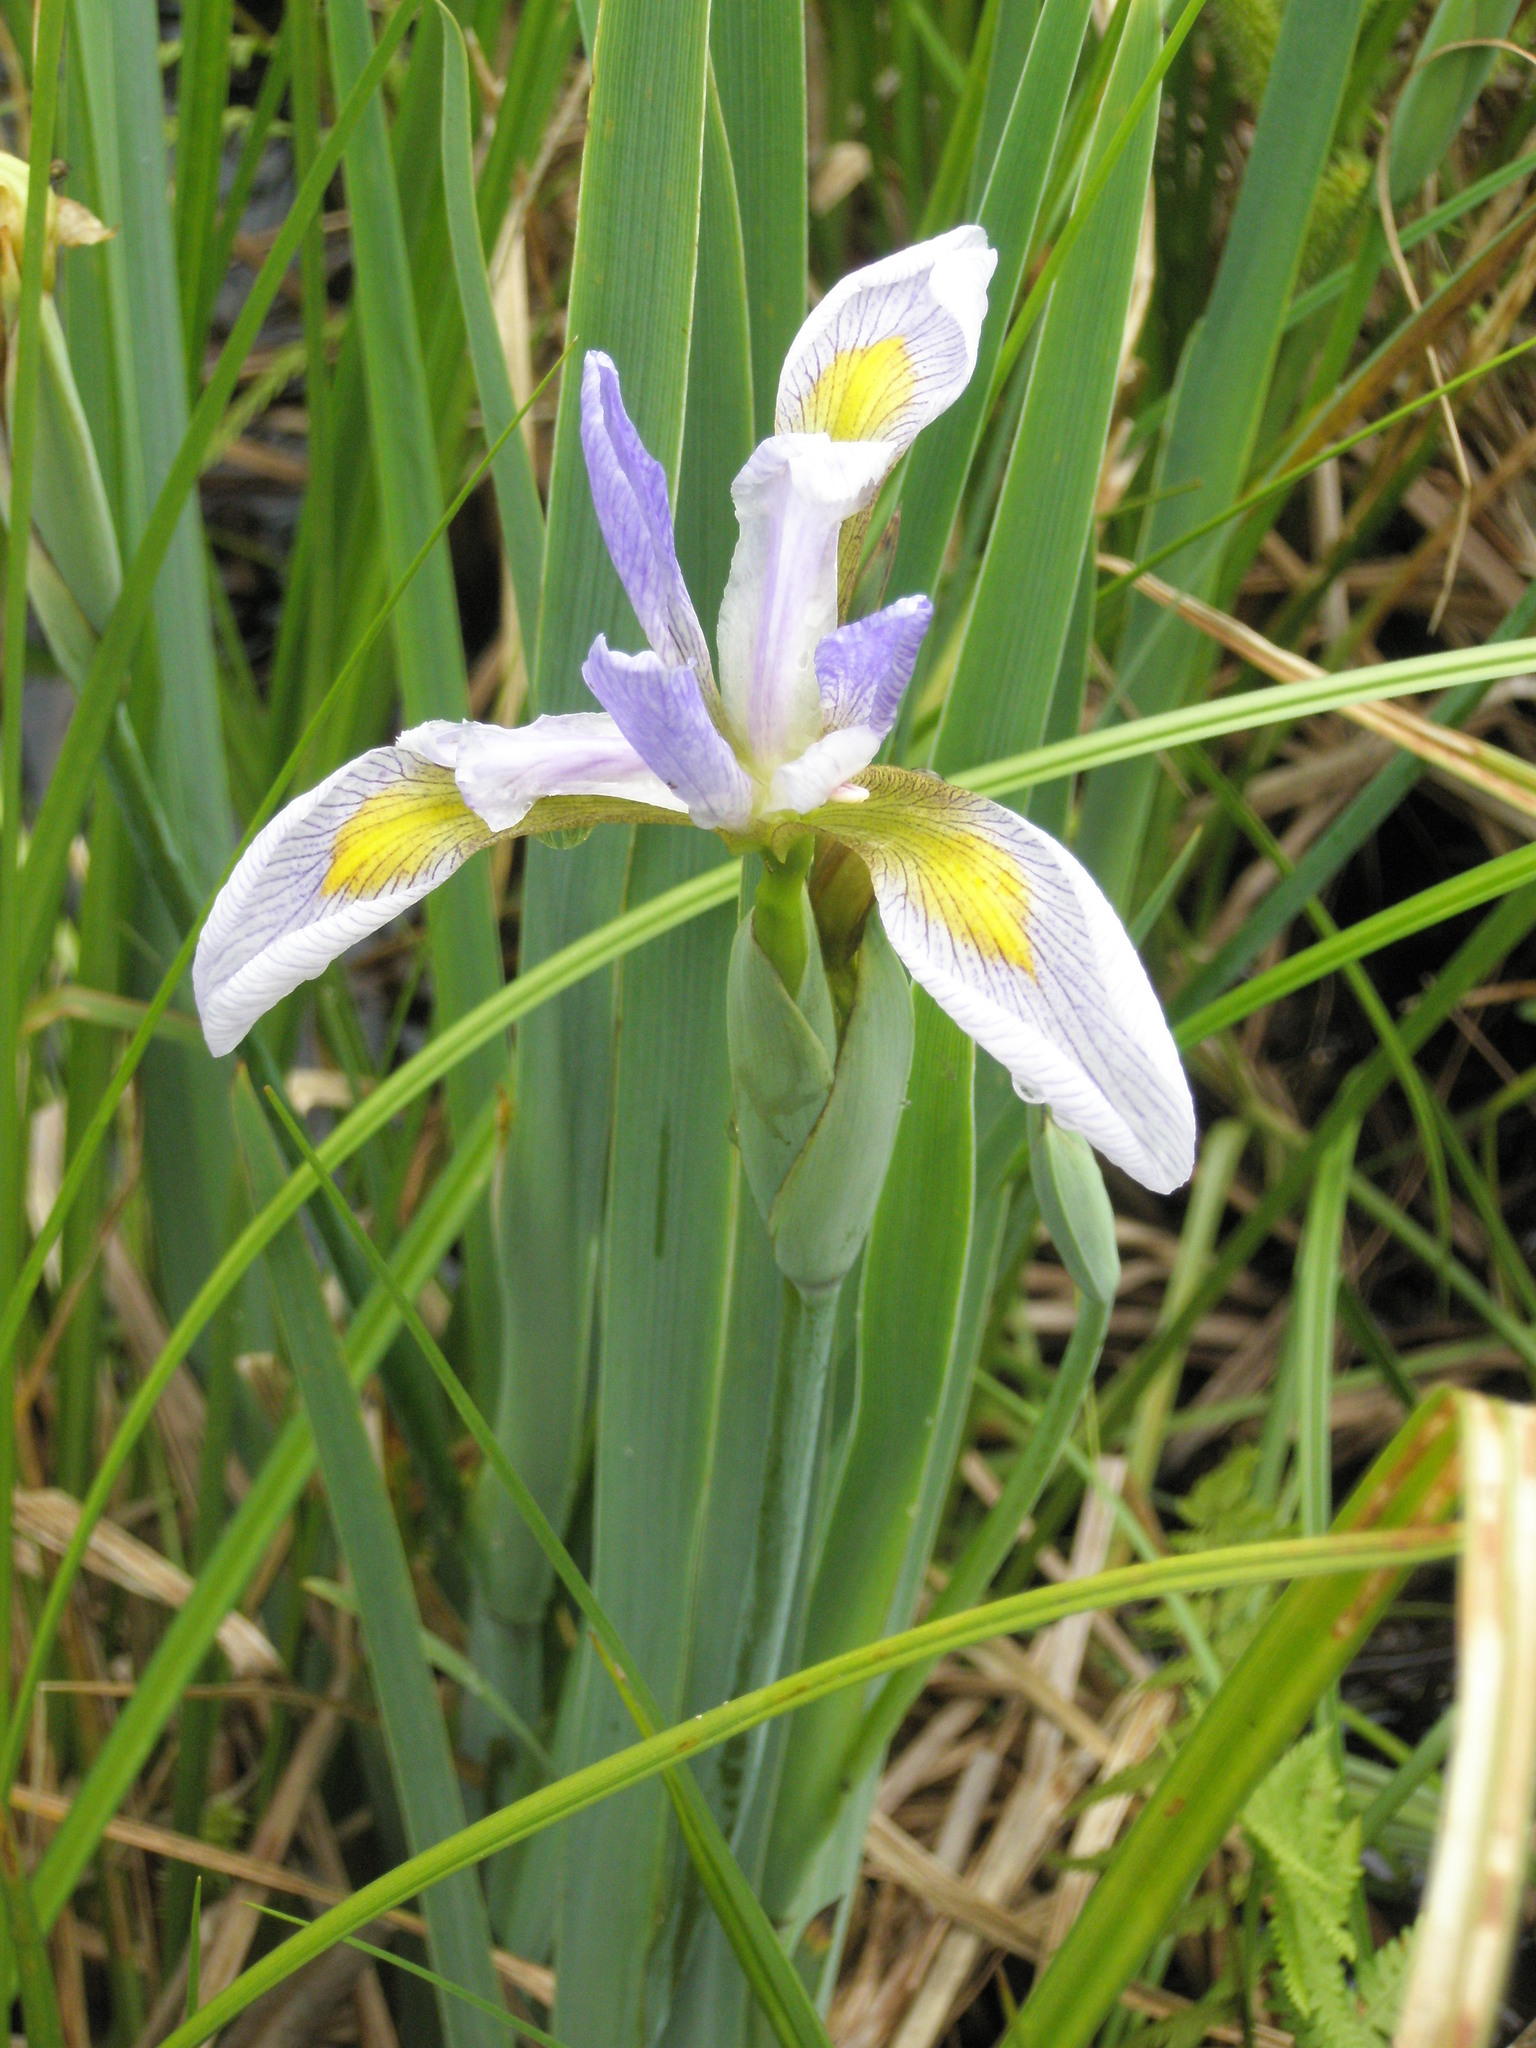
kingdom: Plantae
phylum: Tracheophyta
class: Liliopsida
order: Asparagales
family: Iridaceae
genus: Iris
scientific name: Iris virginica
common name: Southern blue flag
